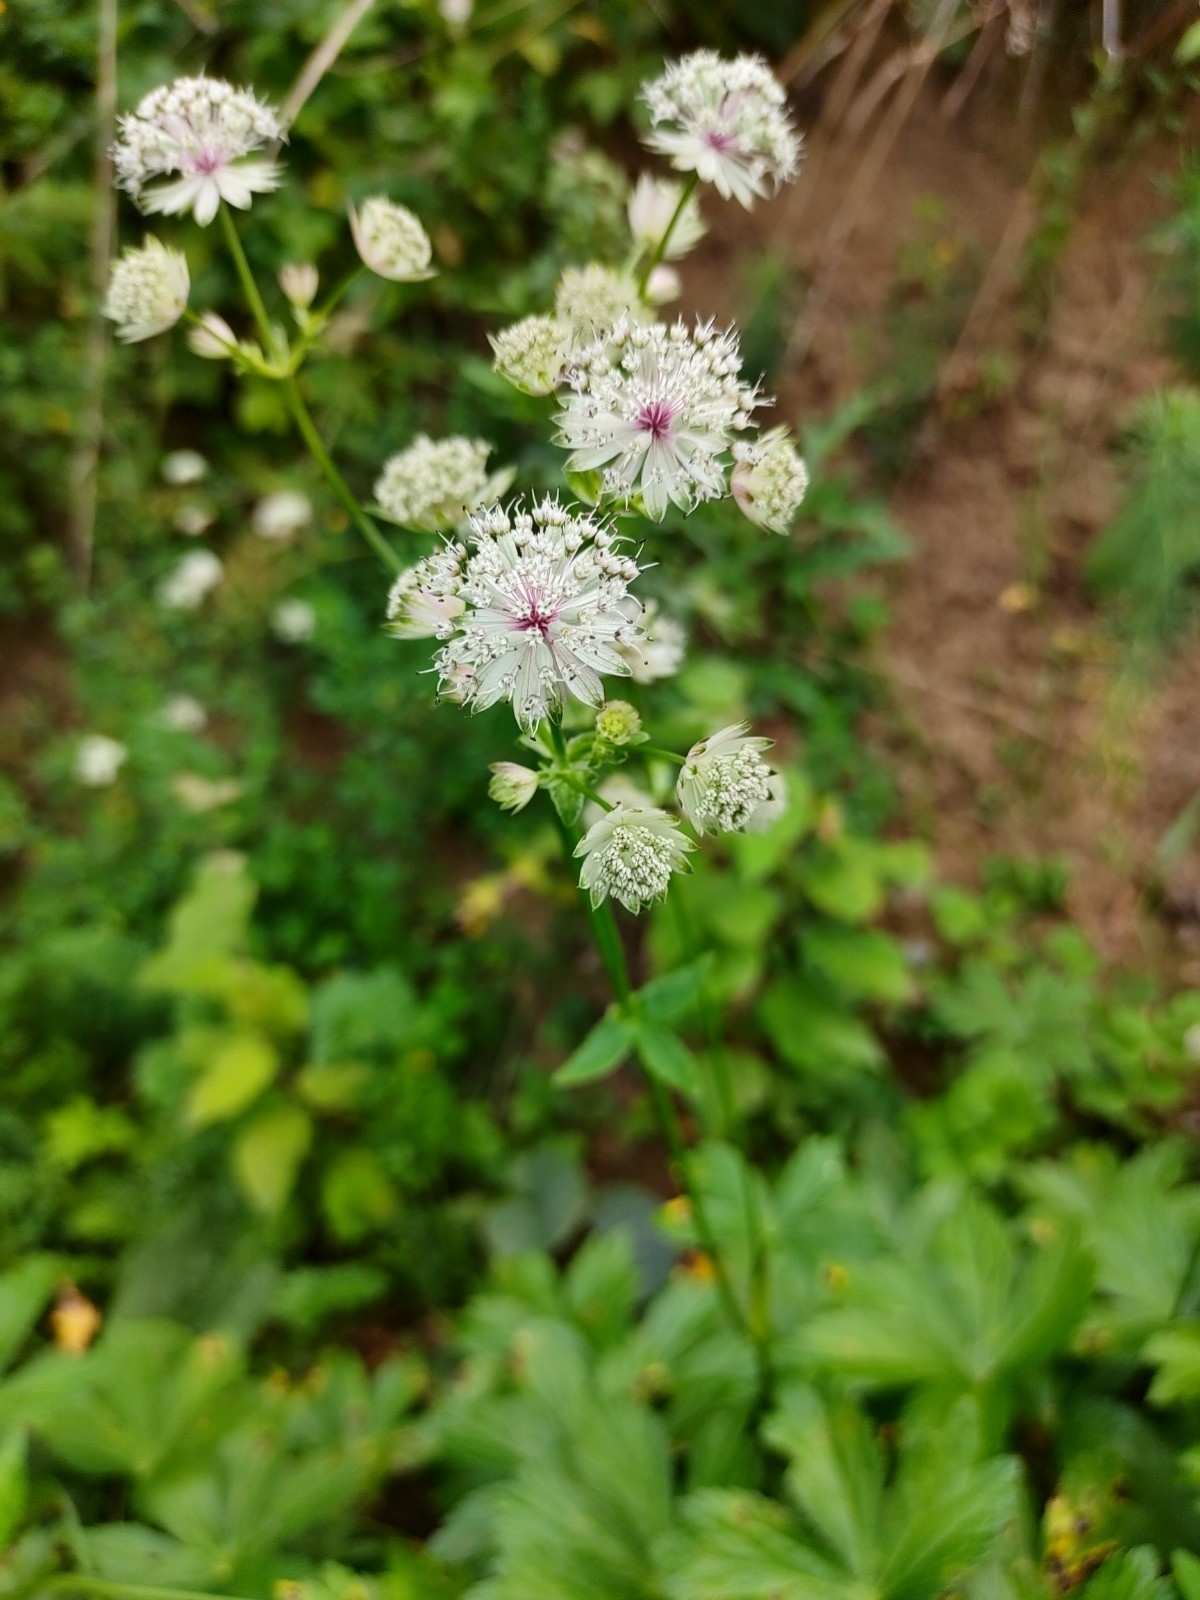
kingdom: Plantae
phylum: Tracheophyta
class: Magnoliopsida
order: Apiales
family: Apiaceae
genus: Astrantia
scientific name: Astrantia major
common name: Greater masterwort
